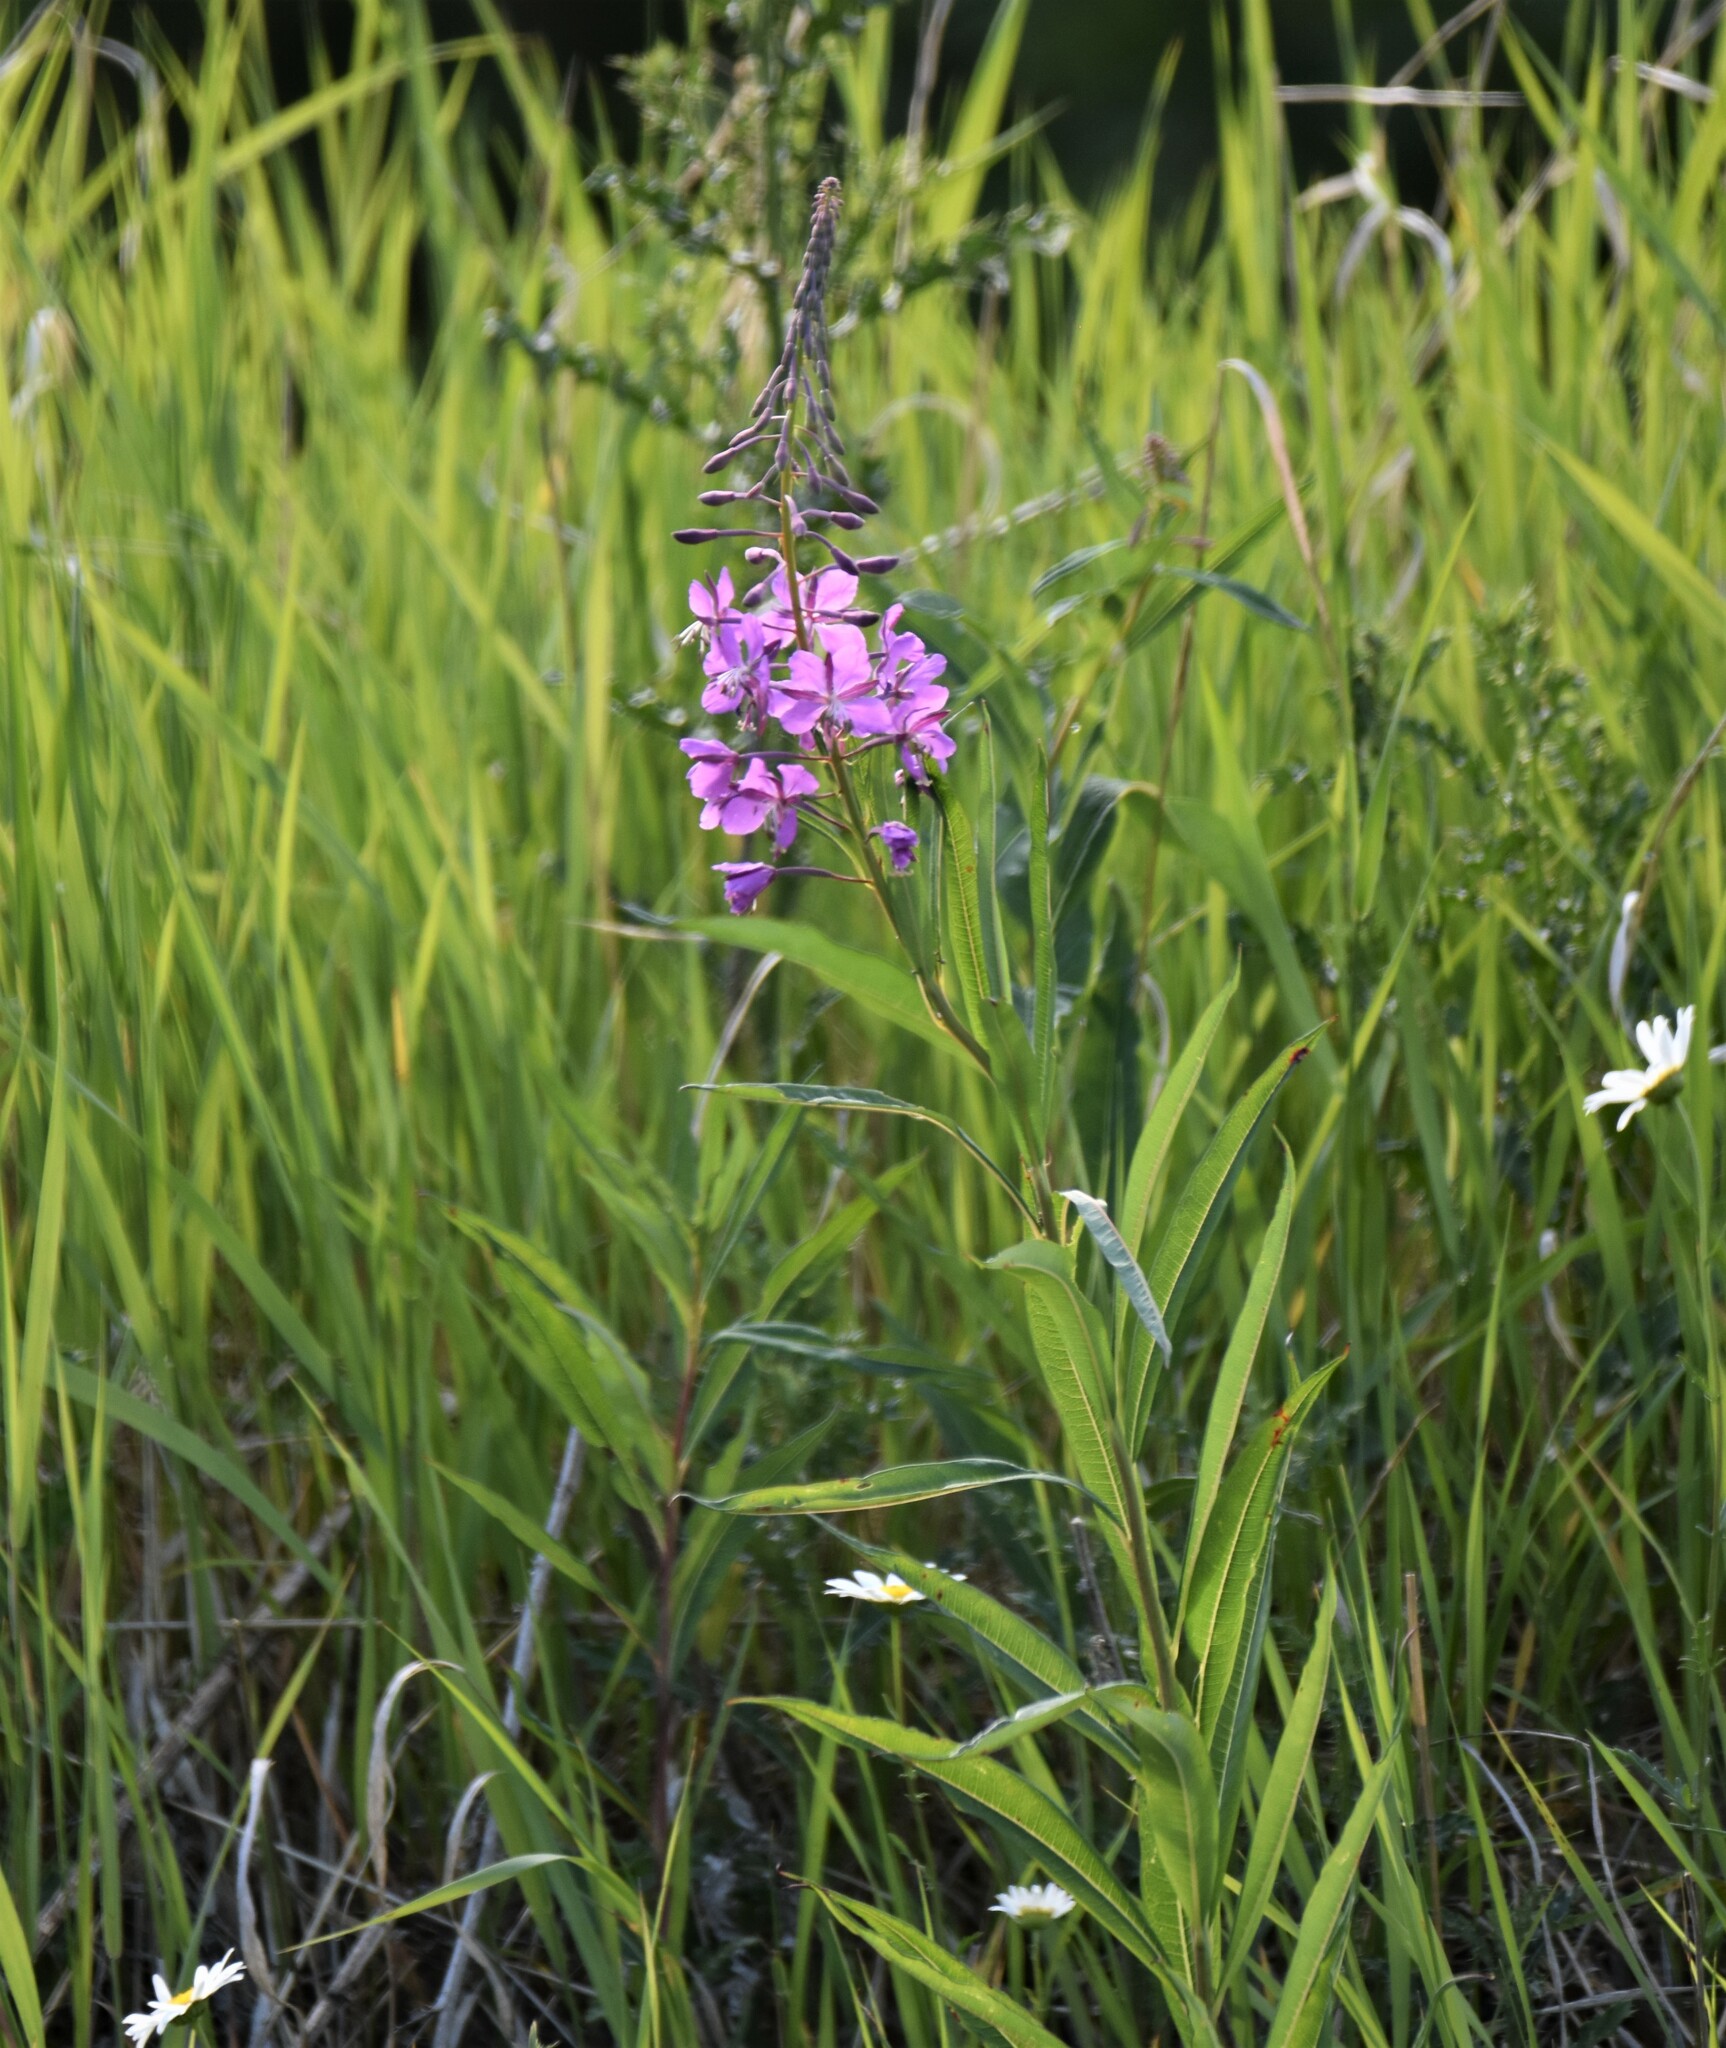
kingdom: Plantae
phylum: Tracheophyta
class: Magnoliopsida
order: Myrtales
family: Onagraceae
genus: Chamaenerion
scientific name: Chamaenerion angustifolium
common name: Fireweed
